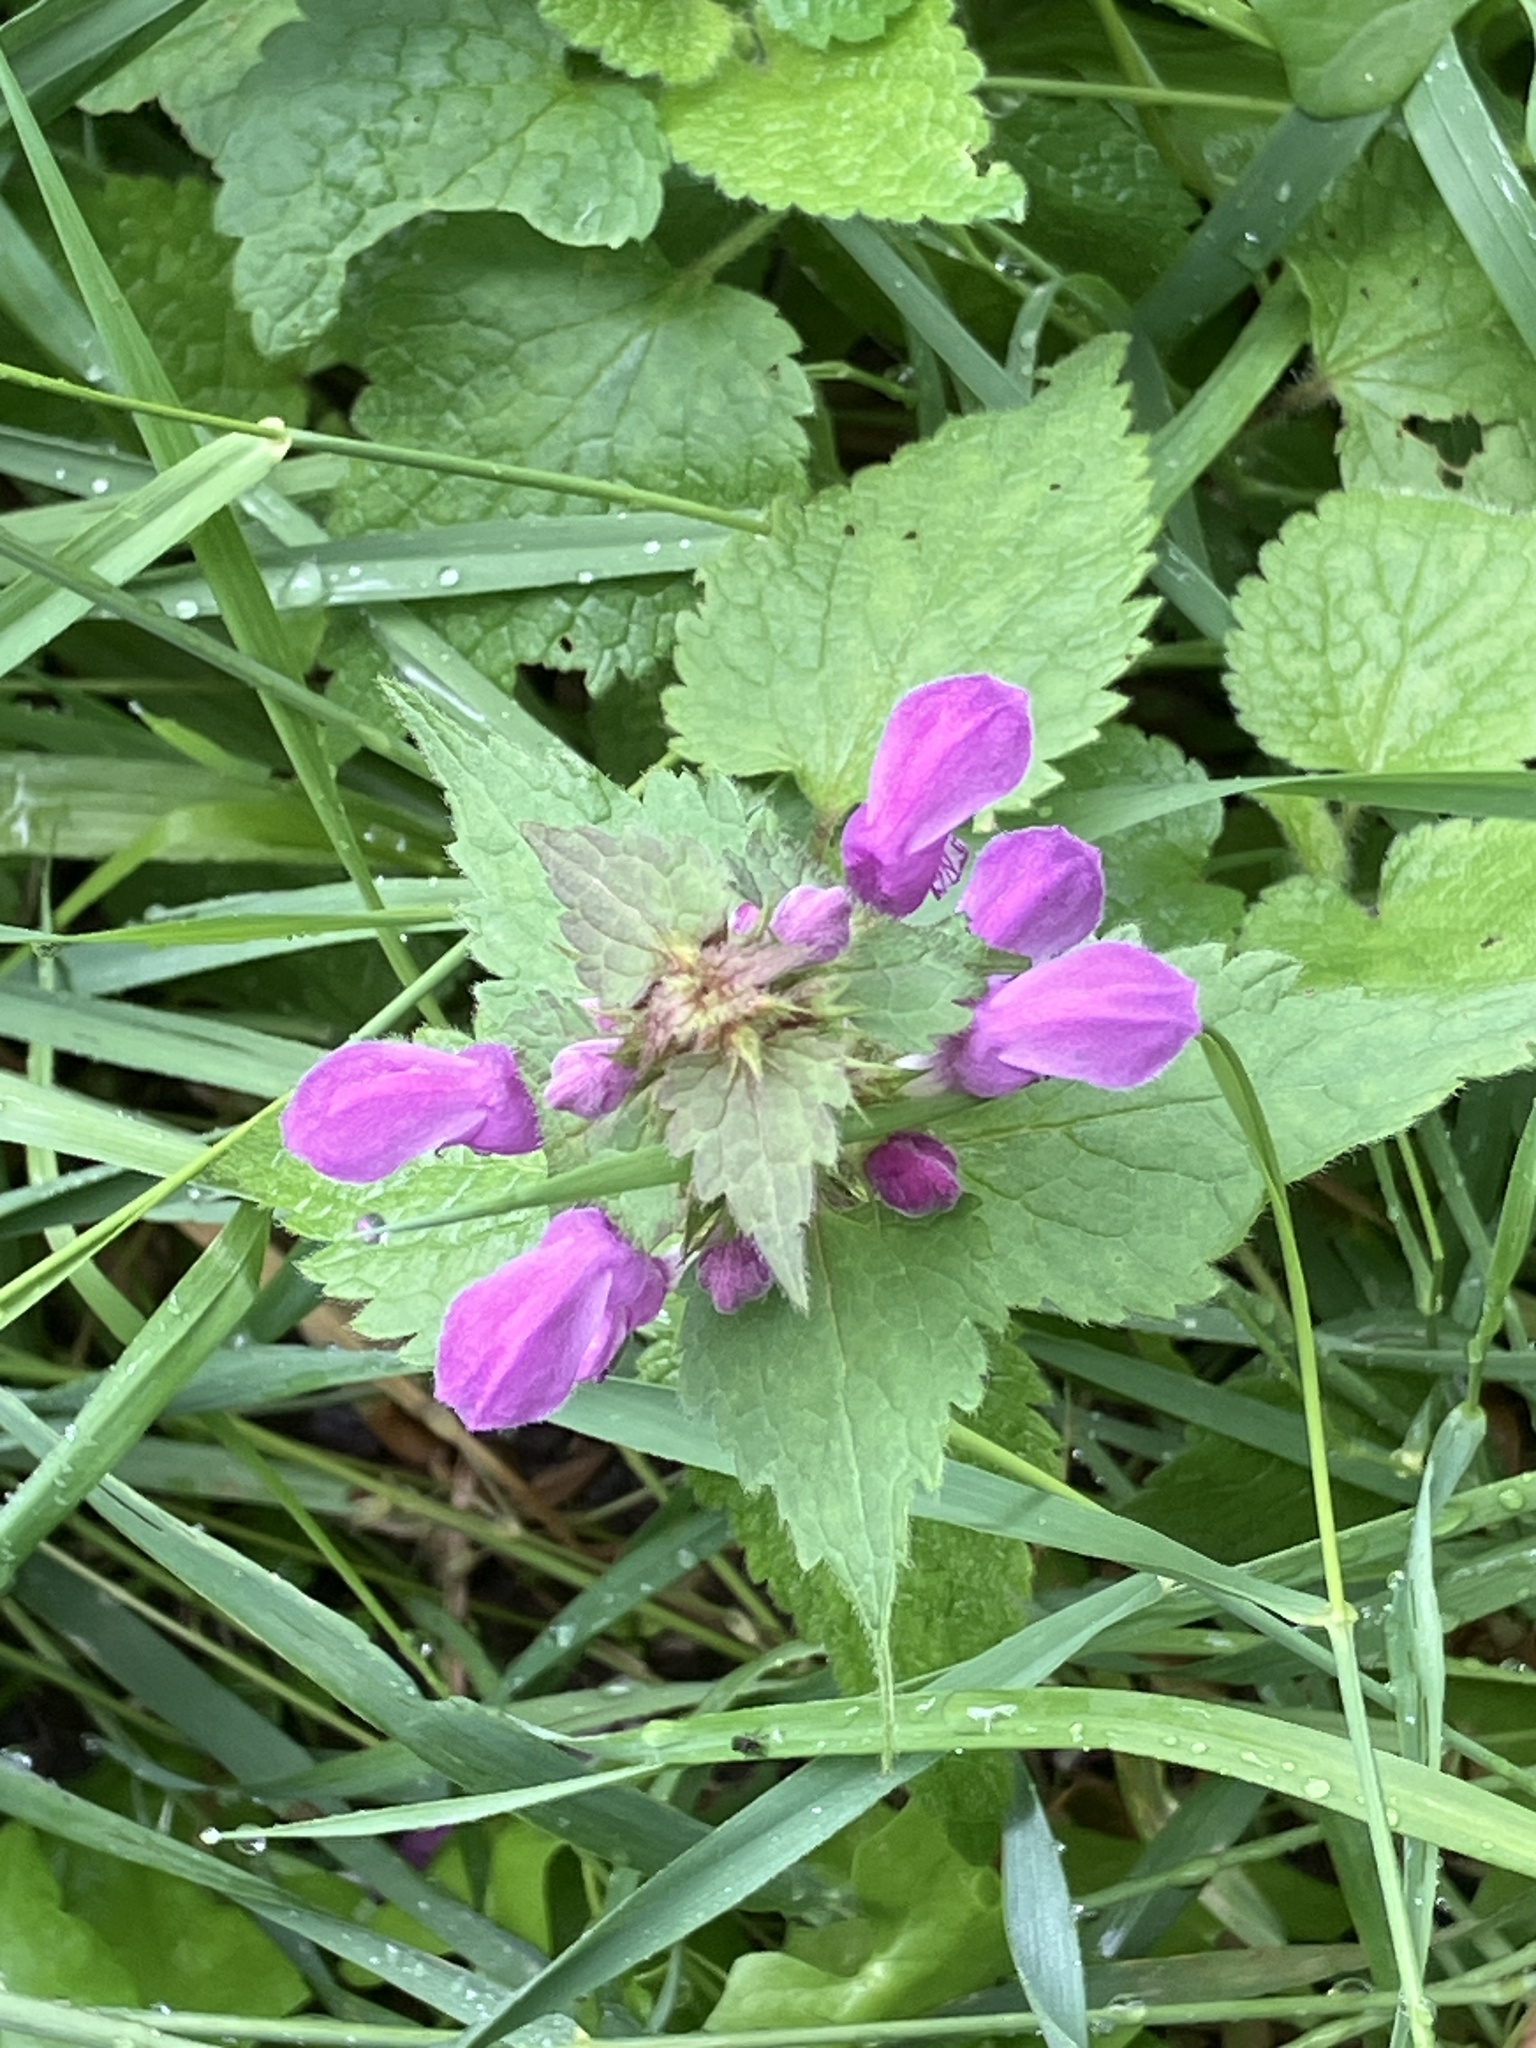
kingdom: Plantae
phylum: Tracheophyta
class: Magnoliopsida
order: Lamiales
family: Lamiaceae
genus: Lamium
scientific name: Lamium maculatum
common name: Spotted dead-nettle
